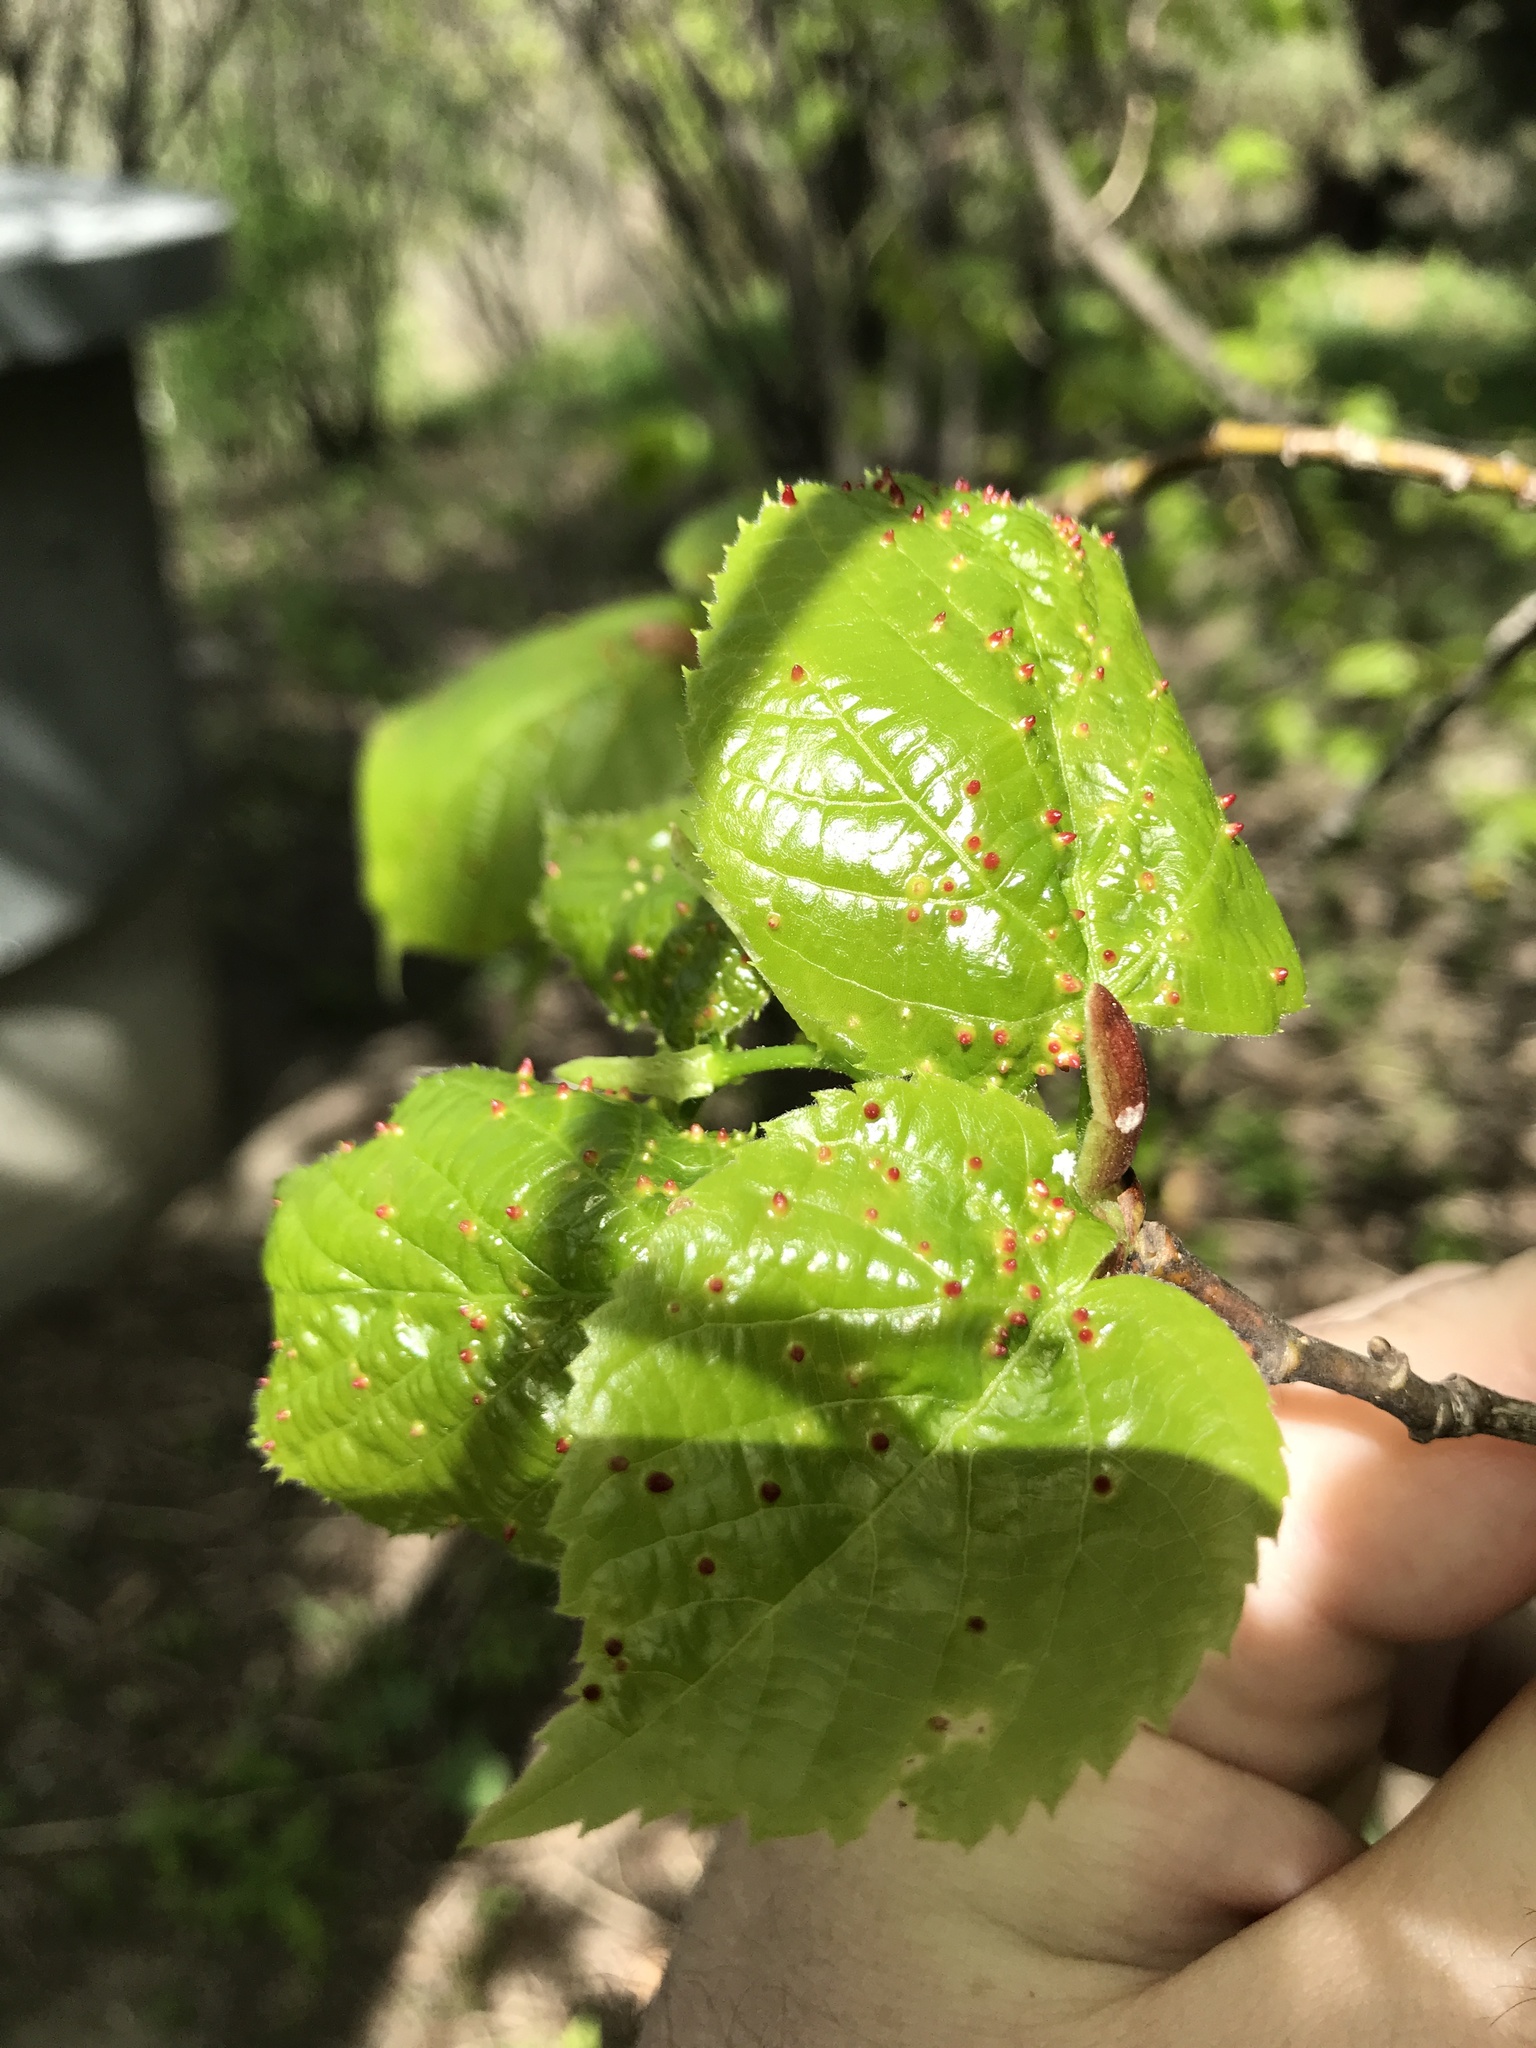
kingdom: Animalia
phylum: Arthropoda
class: Arachnida
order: Trombidiformes
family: Eriophyidae
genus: Eriophyes
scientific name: Eriophyes tiliae
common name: Red nail gall mite
